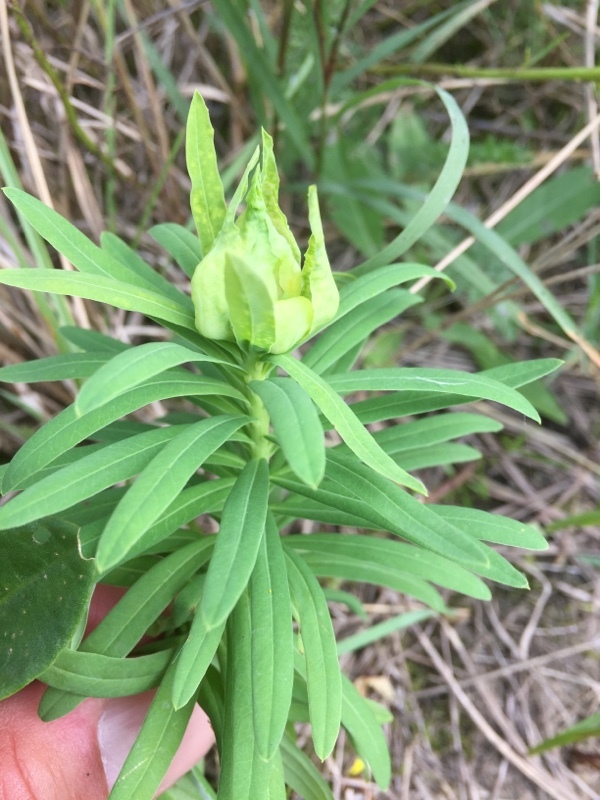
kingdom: Animalia
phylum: Arthropoda
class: Insecta
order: Diptera
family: Cecidomyiidae
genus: Spurgia
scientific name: Spurgia esulae
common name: Small gall midge
